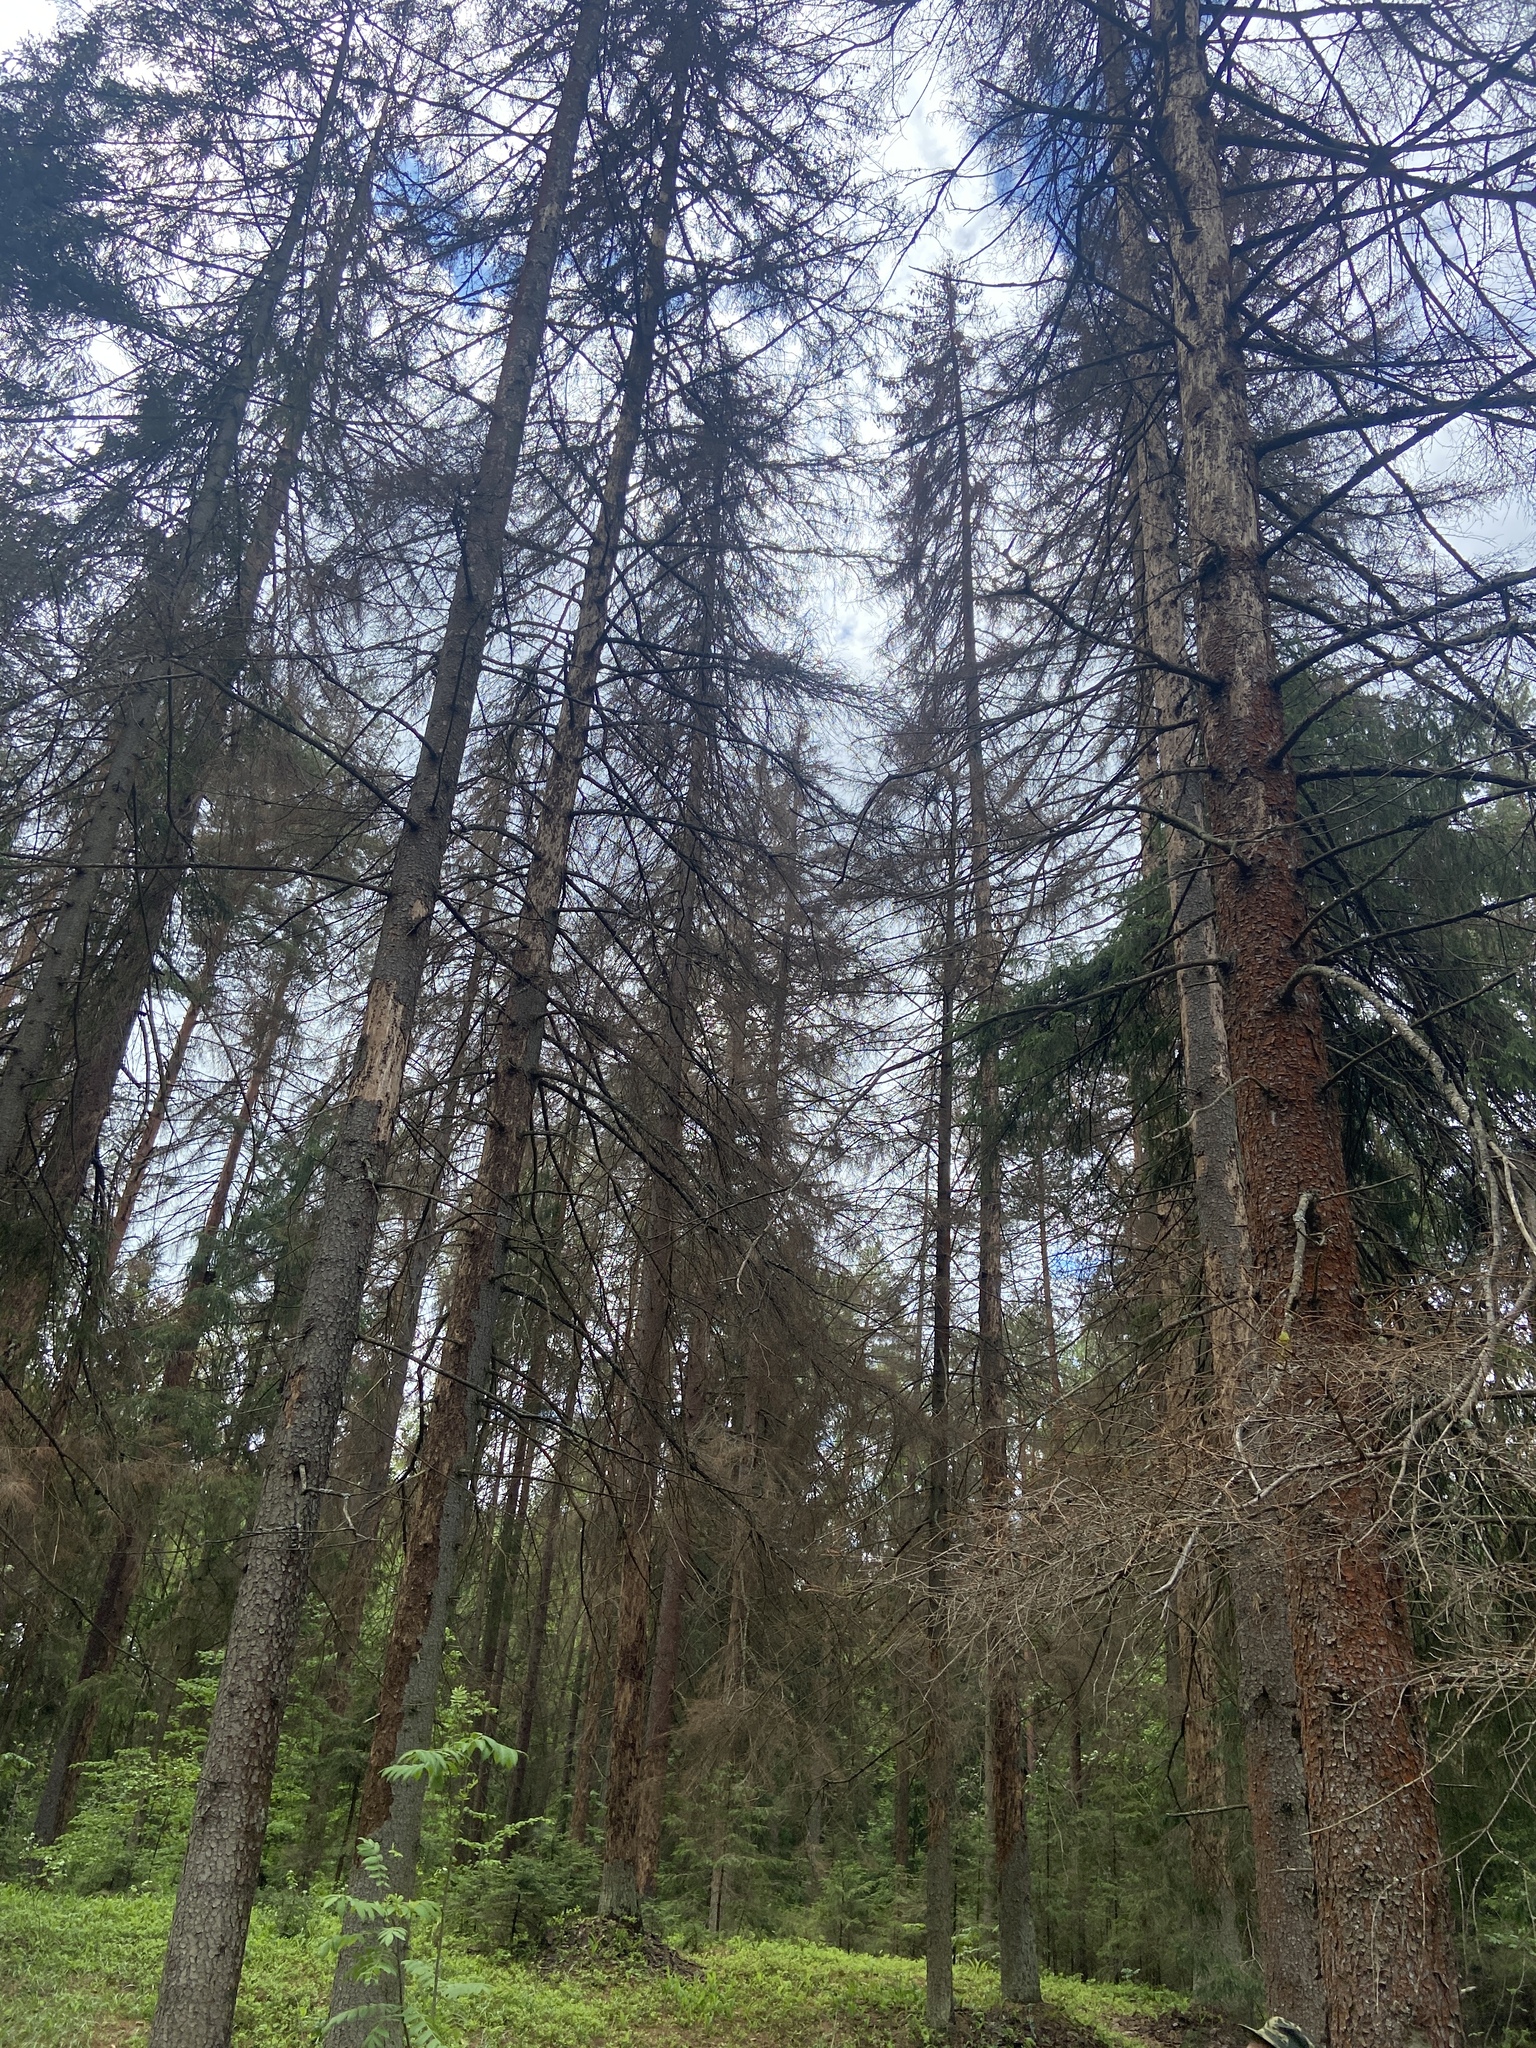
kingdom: Plantae
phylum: Tracheophyta
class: Pinopsida
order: Pinales
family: Pinaceae
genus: Picea
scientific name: Picea abies
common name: Norway spruce
